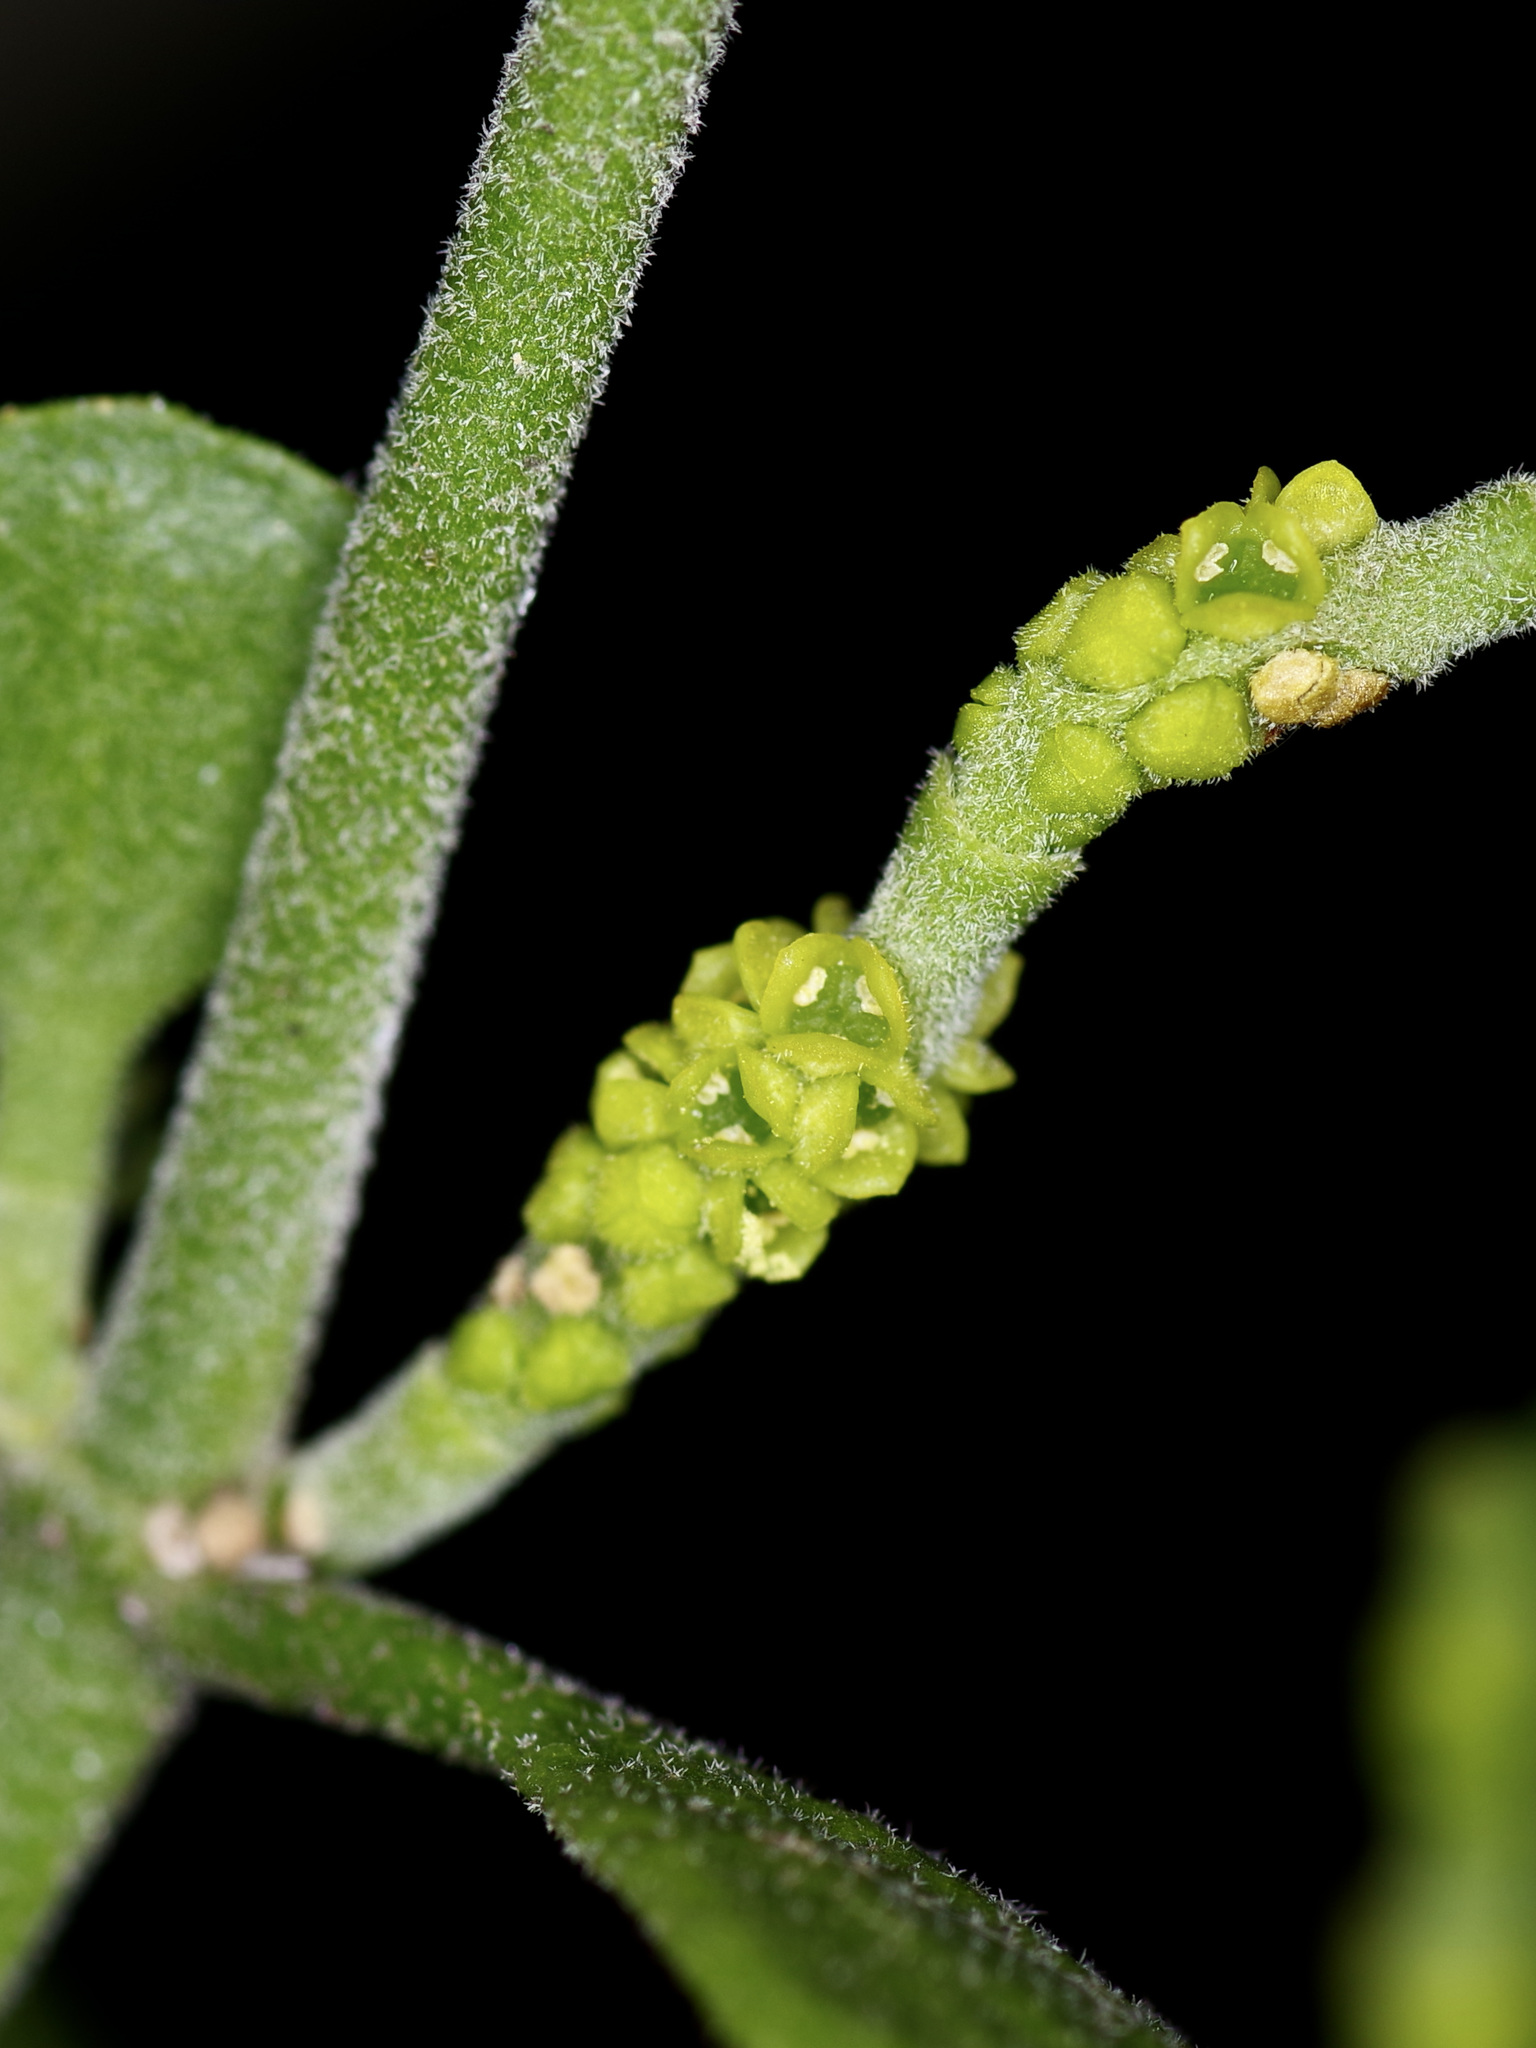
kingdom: Plantae
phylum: Tracheophyta
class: Magnoliopsida
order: Santalales
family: Viscaceae
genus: Phoradendron
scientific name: Phoradendron leucarpum
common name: Pacific mistletoe
